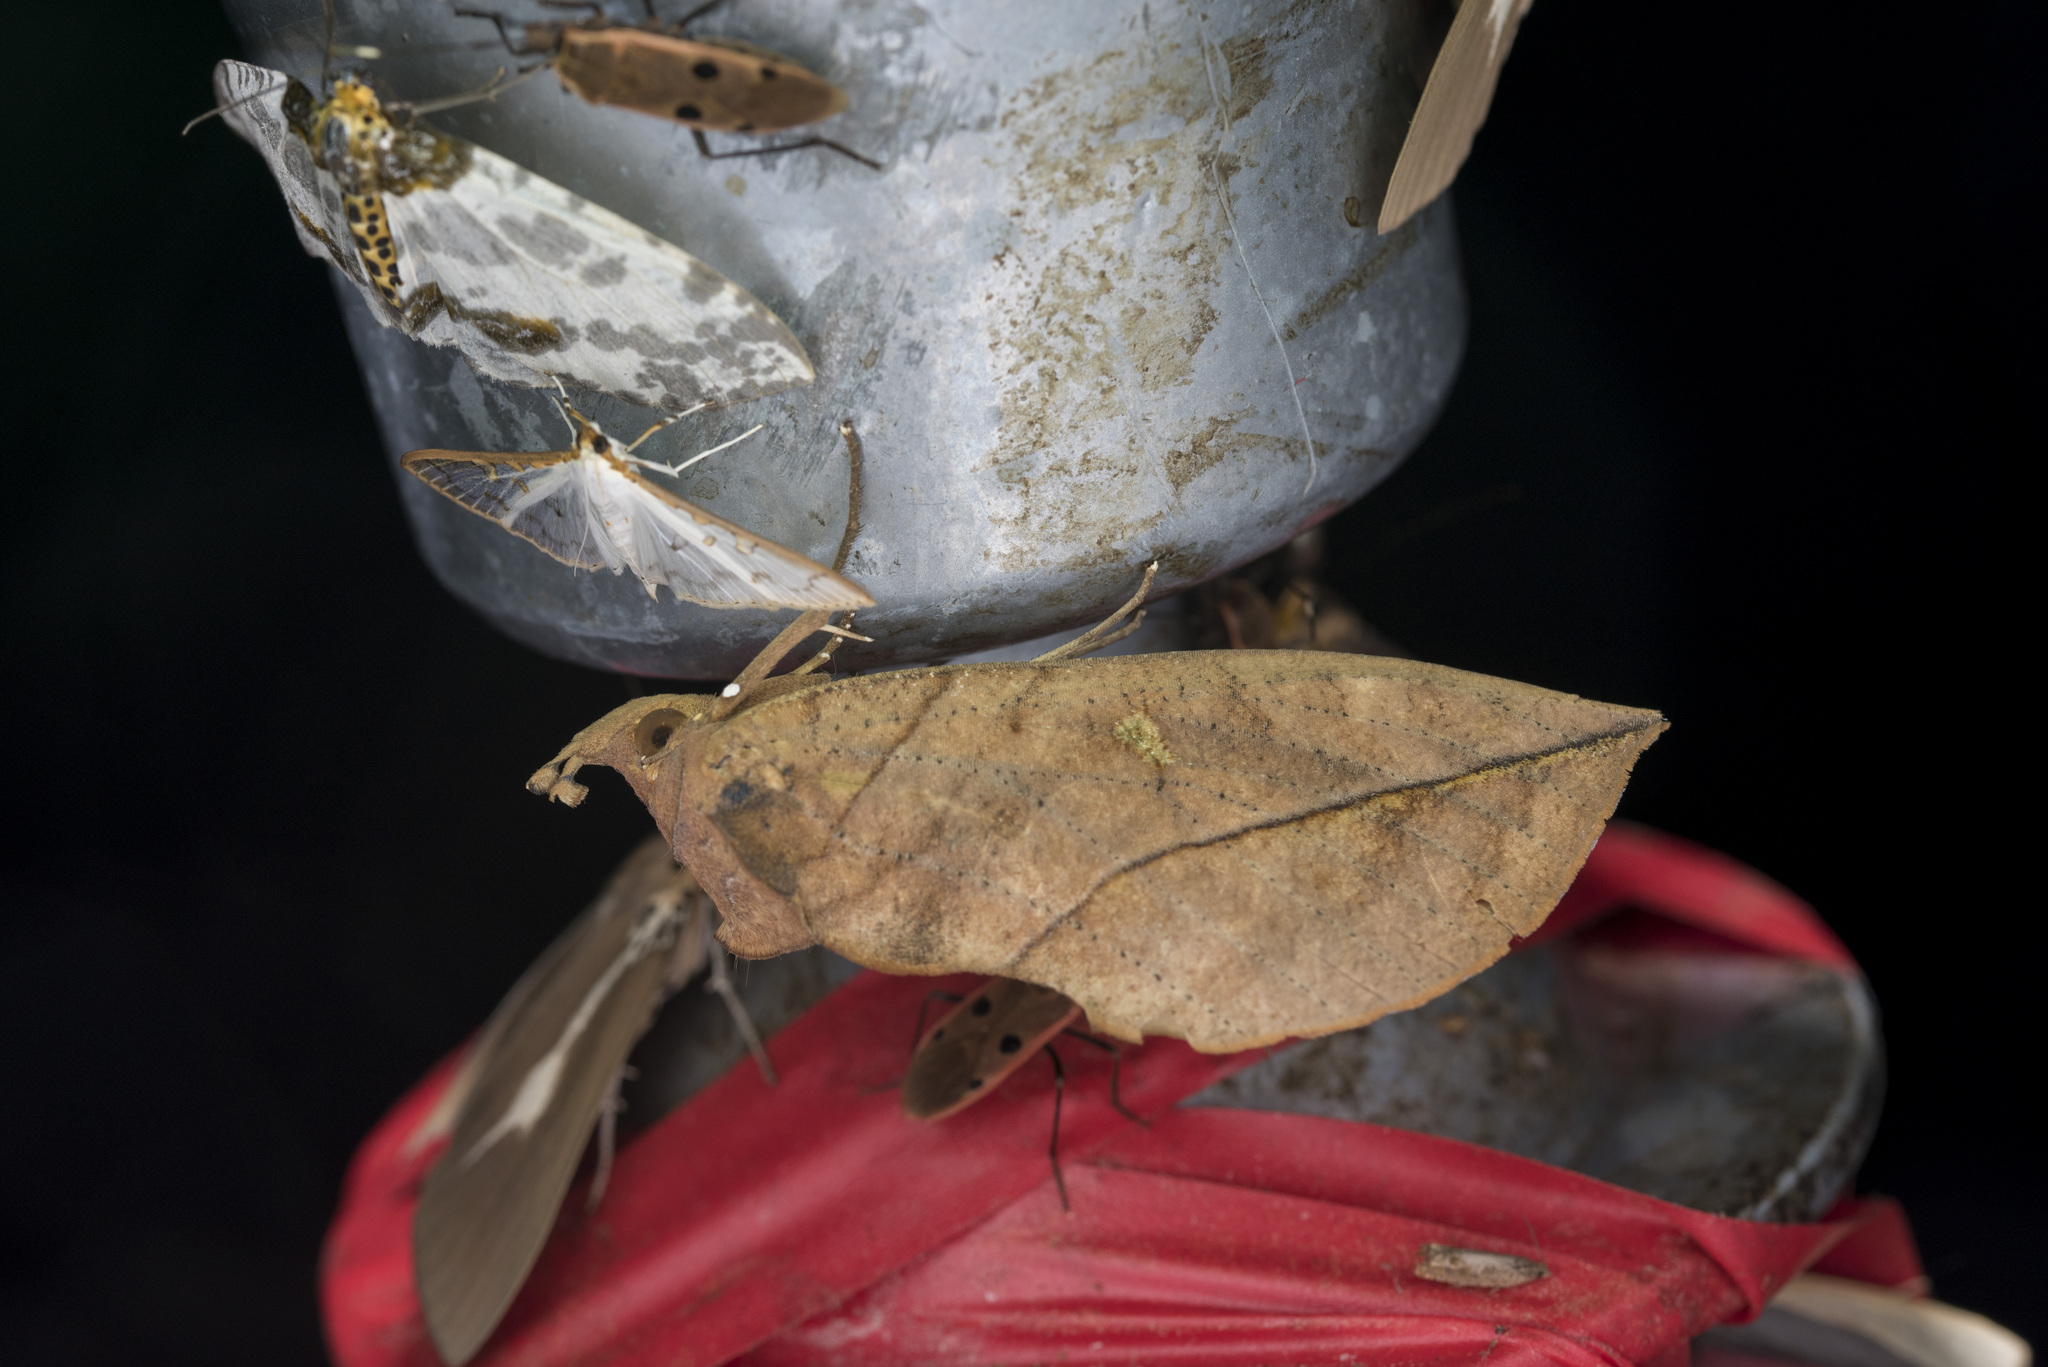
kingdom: Animalia
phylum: Arthropoda
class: Insecta
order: Lepidoptera
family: Erebidae
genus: Eudocima
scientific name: Eudocima tyrannus
